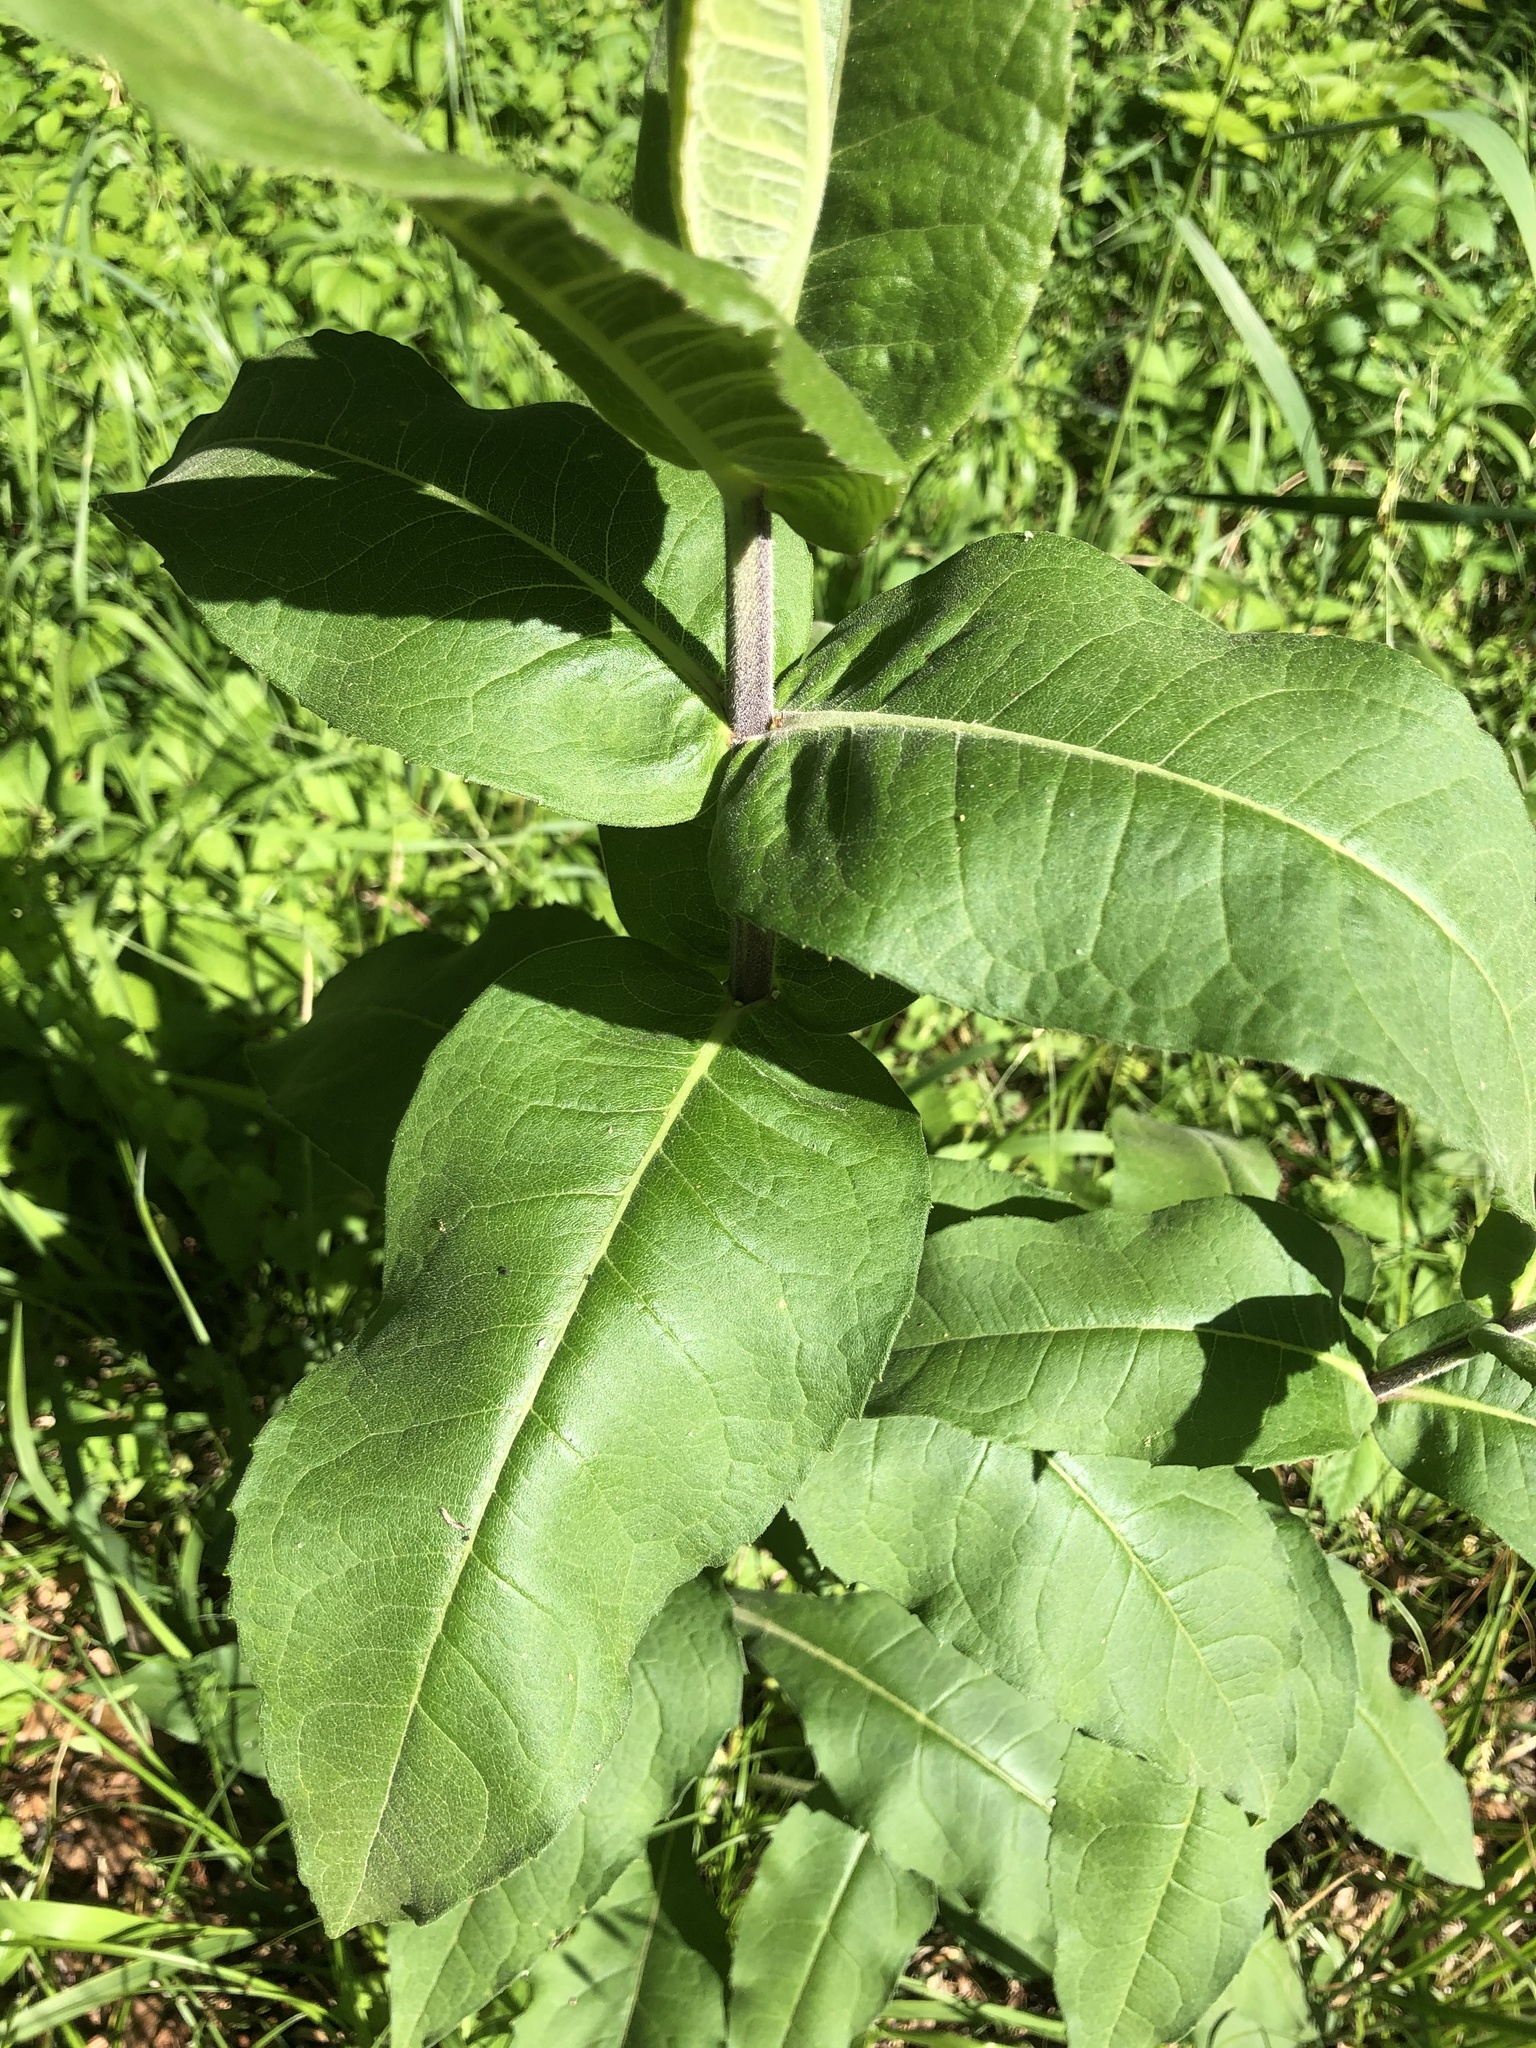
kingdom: Plantae
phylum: Tracheophyta
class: Magnoliopsida
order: Asterales
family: Asteraceae
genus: Silphium
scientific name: Silphium integrifolium
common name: Whole-leaf rosinweed
